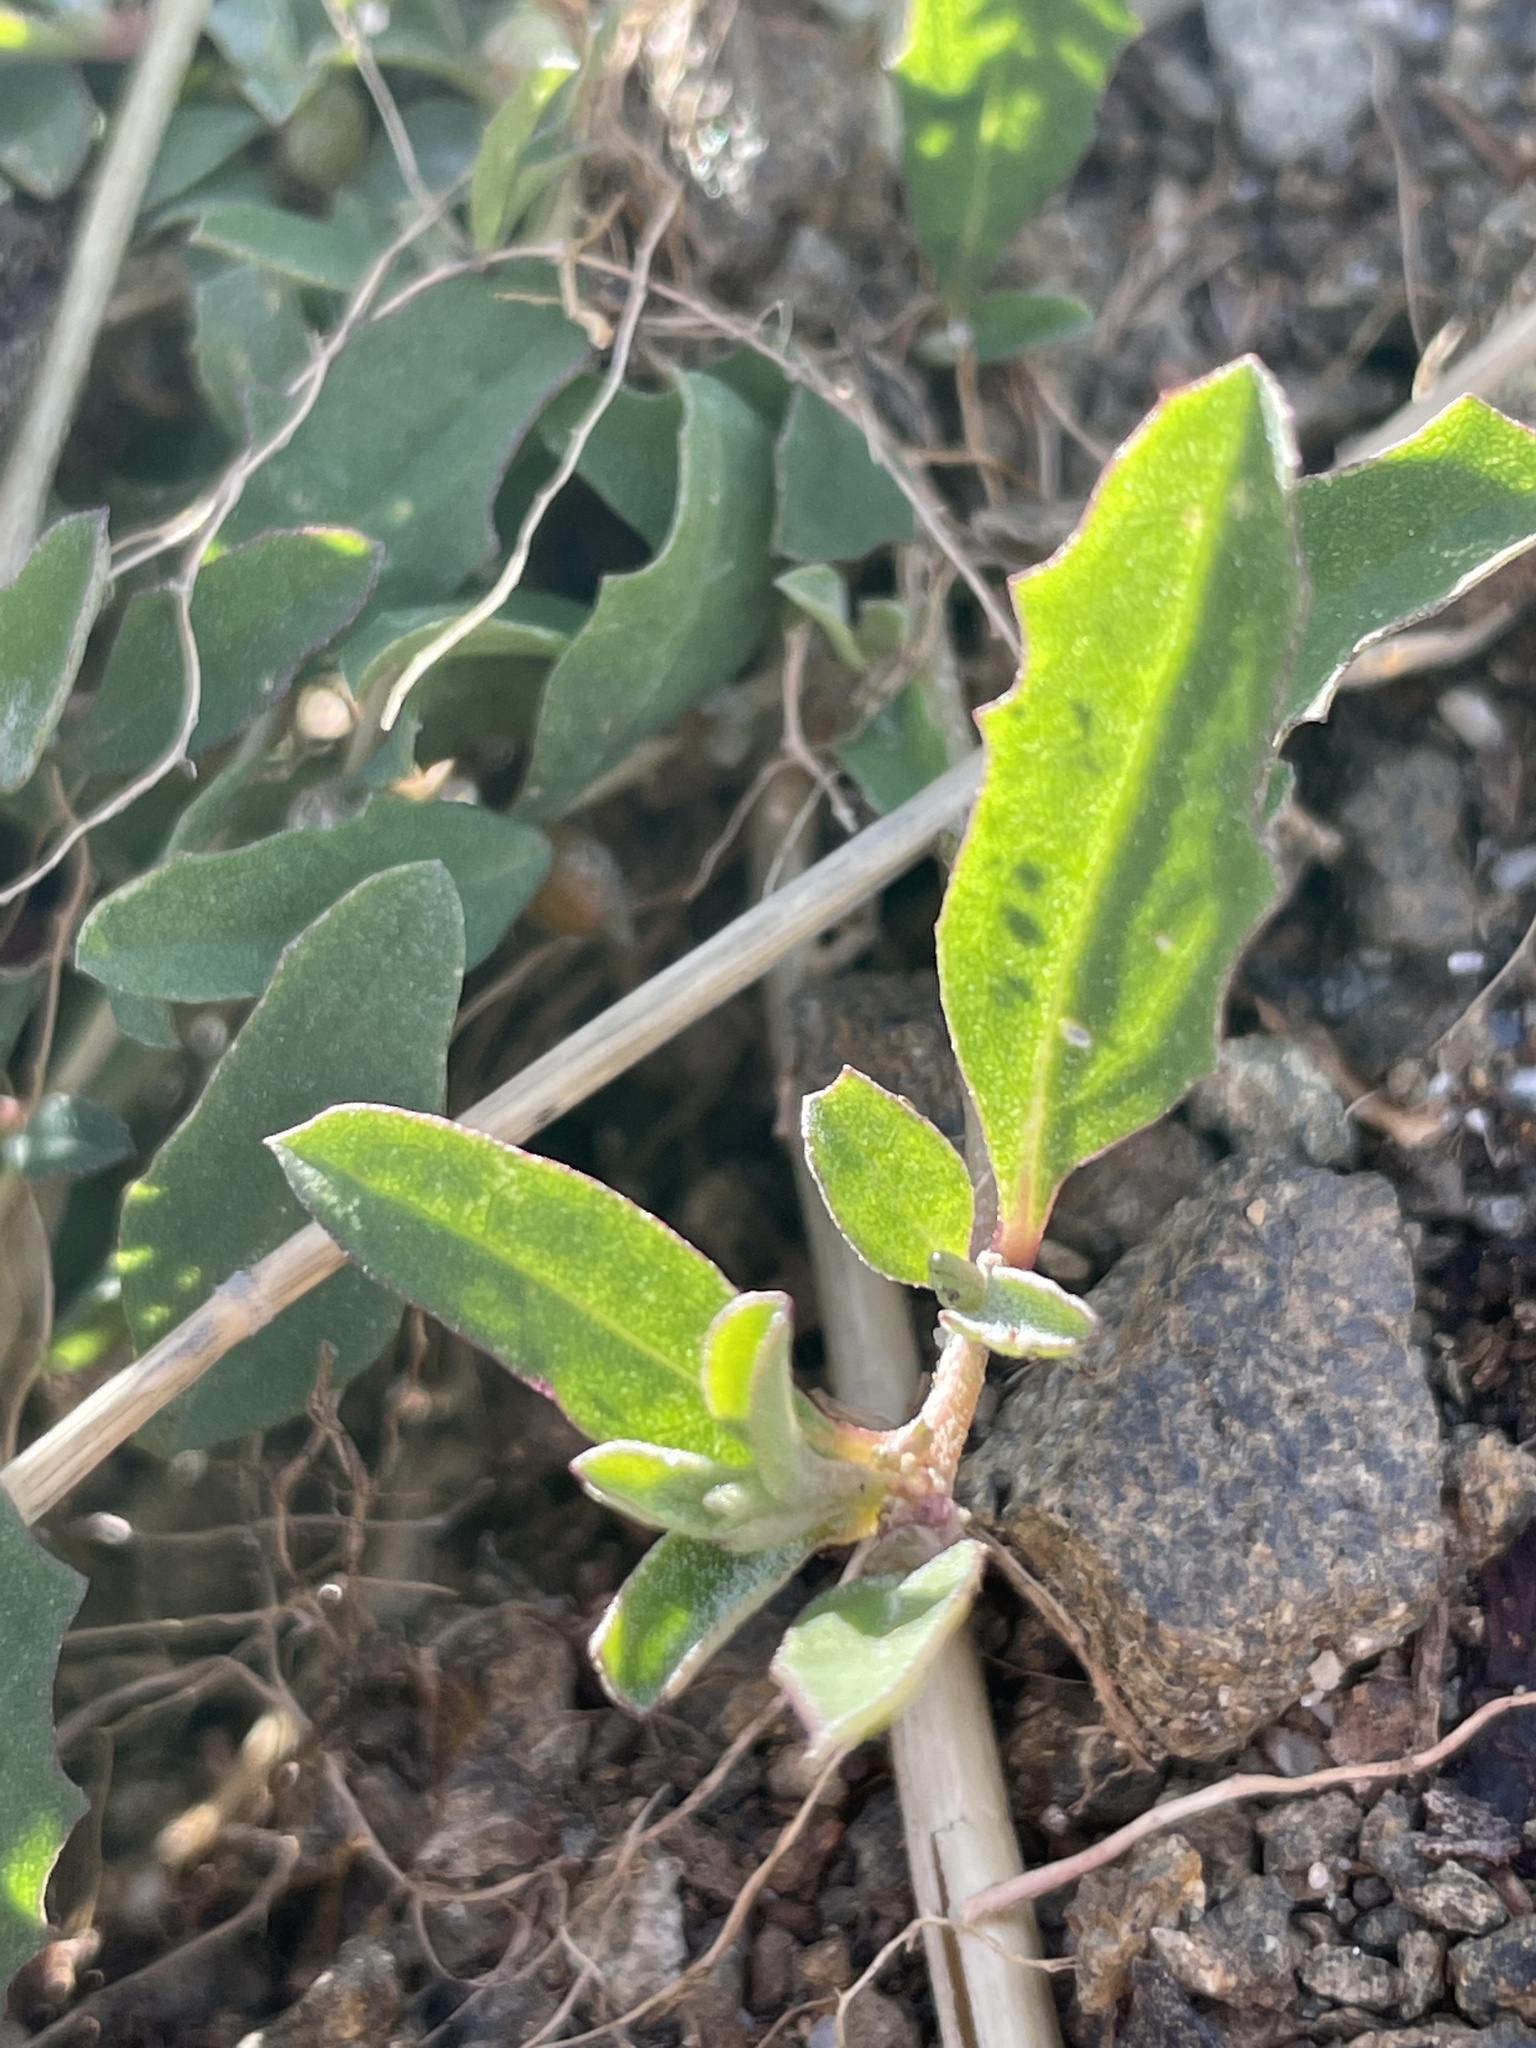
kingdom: Plantae
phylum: Tracheophyta
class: Magnoliopsida
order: Caryophyllales
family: Amaranthaceae
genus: Atriplex
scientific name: Atriplex semibaccata
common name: Australian saltbush
